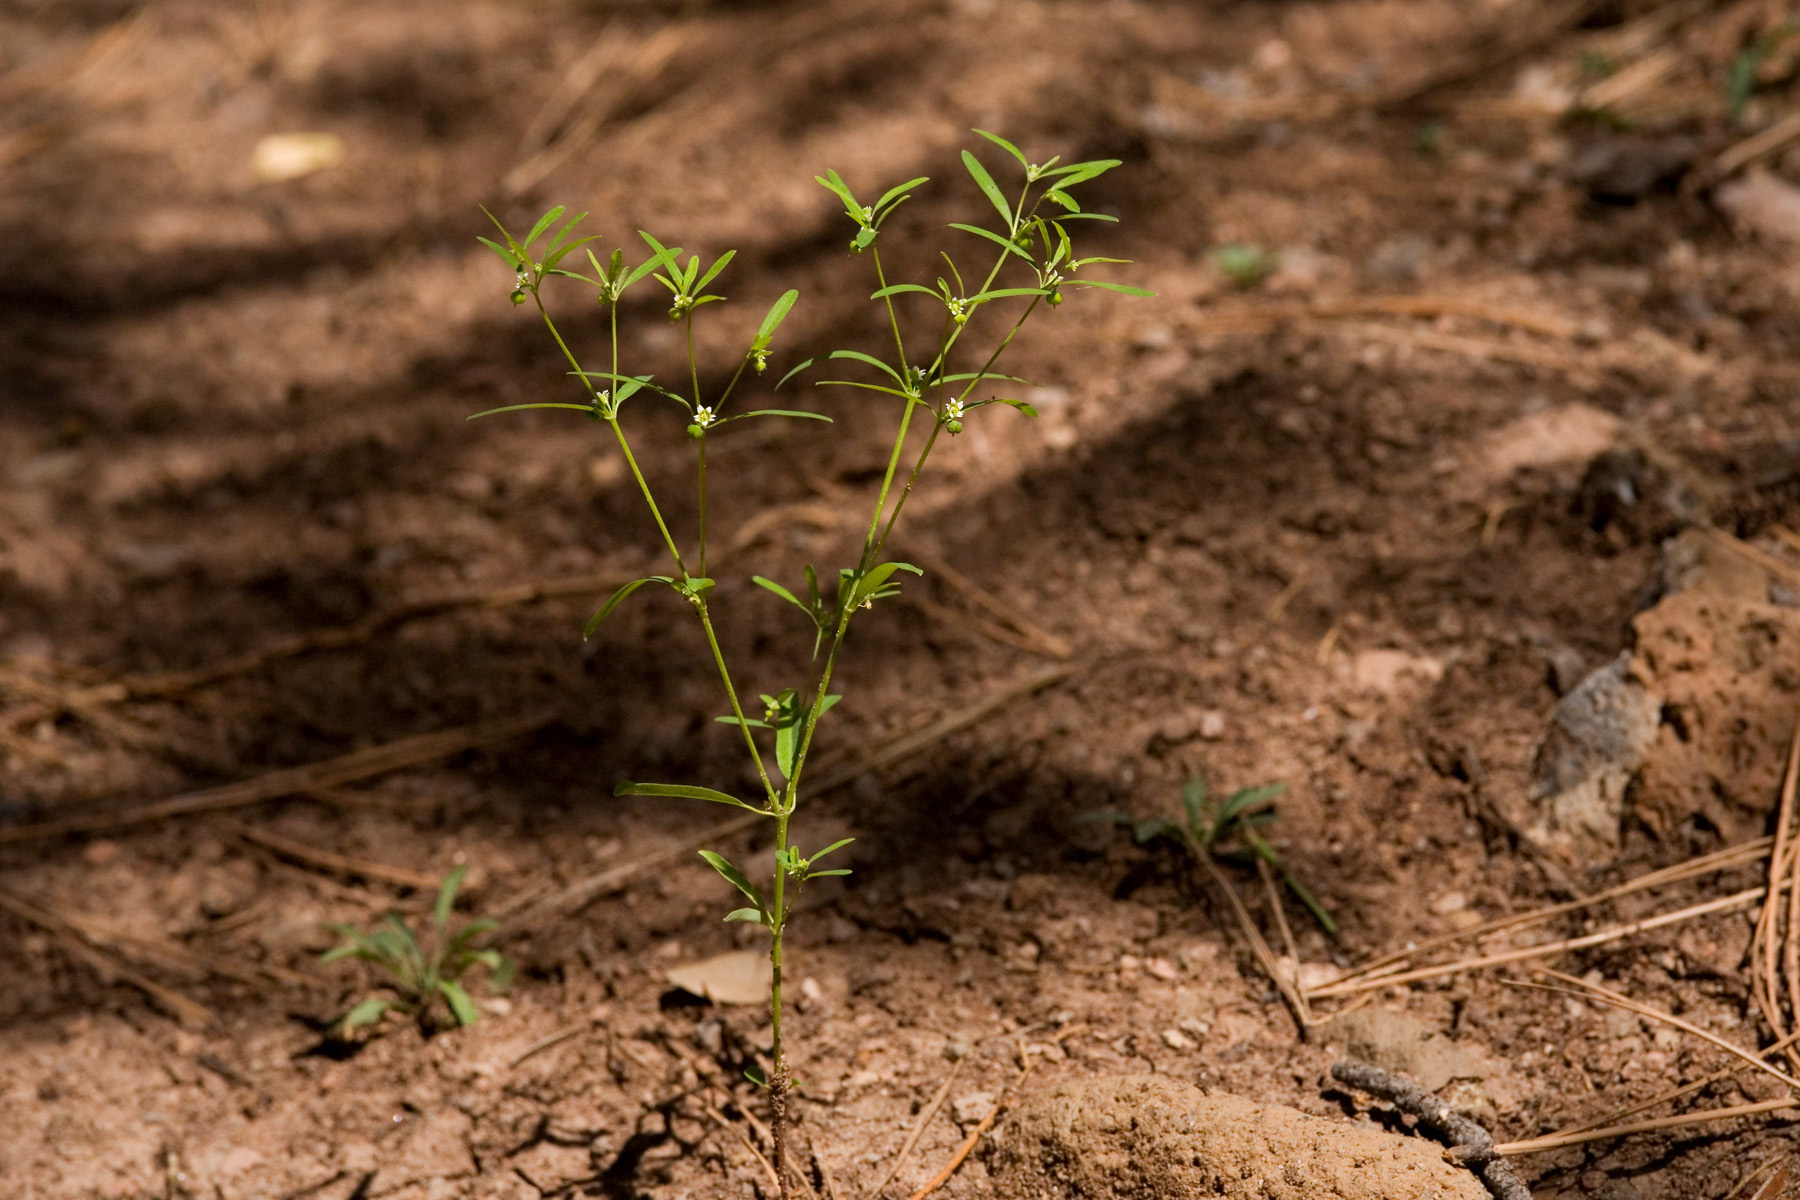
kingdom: Plantae
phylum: Tracheophyta
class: Magnoliopsida
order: Malpighiales
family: Euphorbiaceae
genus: Euphorbia
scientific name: Euphorbia bilobata
